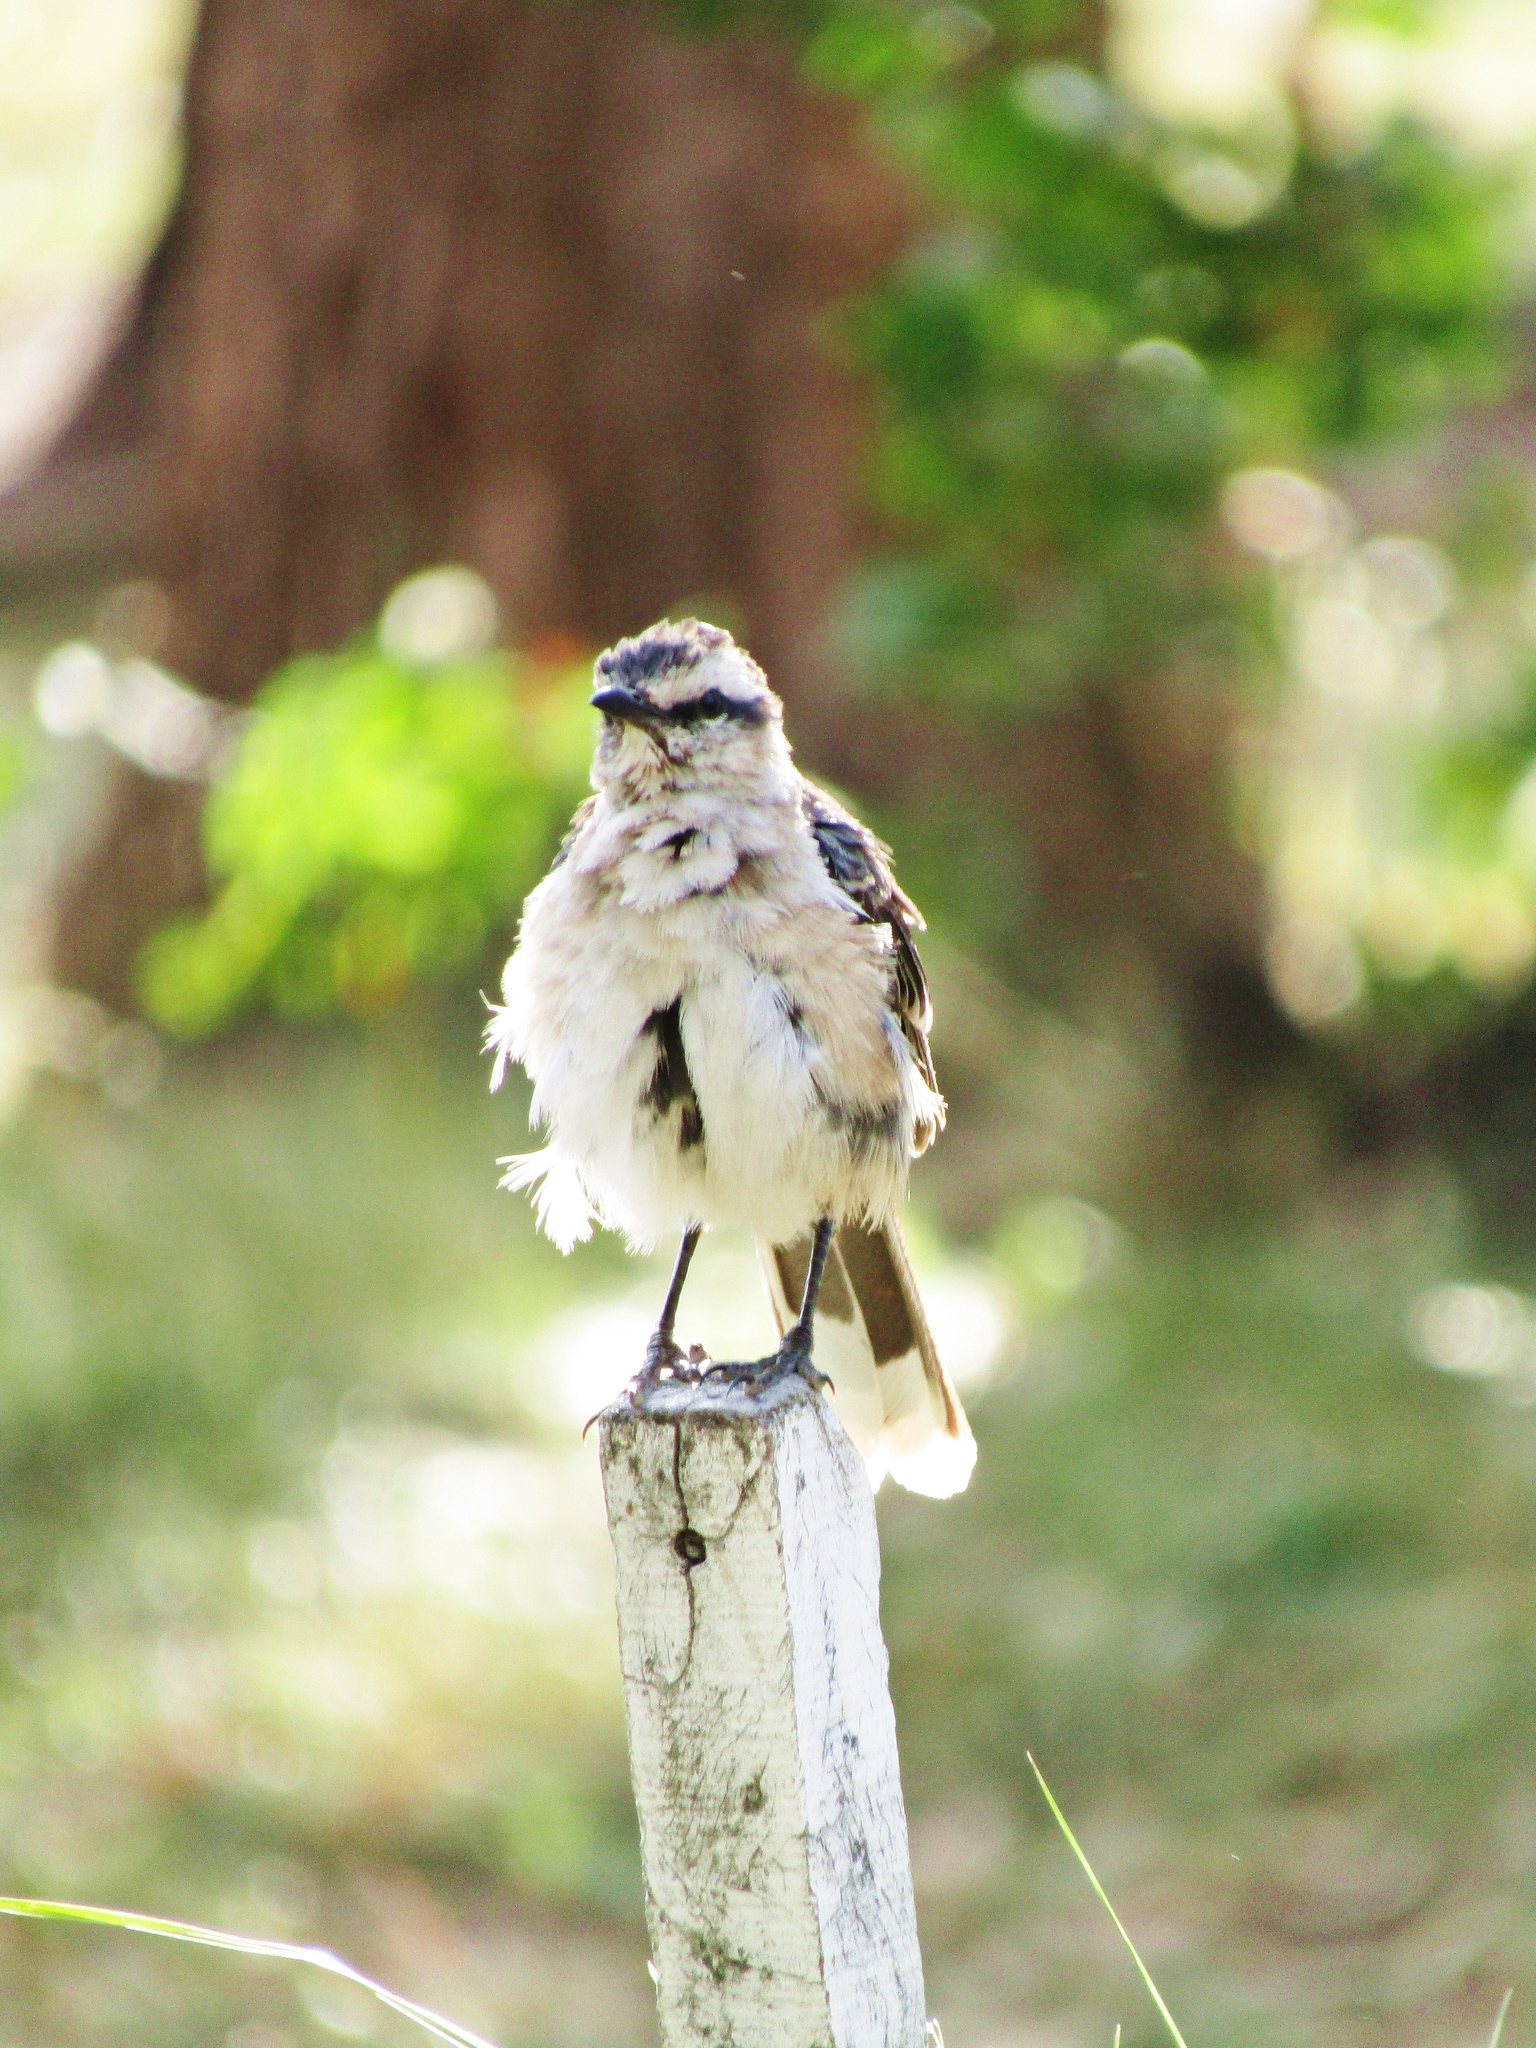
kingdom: Animalia
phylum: Chordata
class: Aves
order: Passeriformes
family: Mimidae
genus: Mimus
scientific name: Mimus saturninus
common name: Chalk-browed mockingbird
